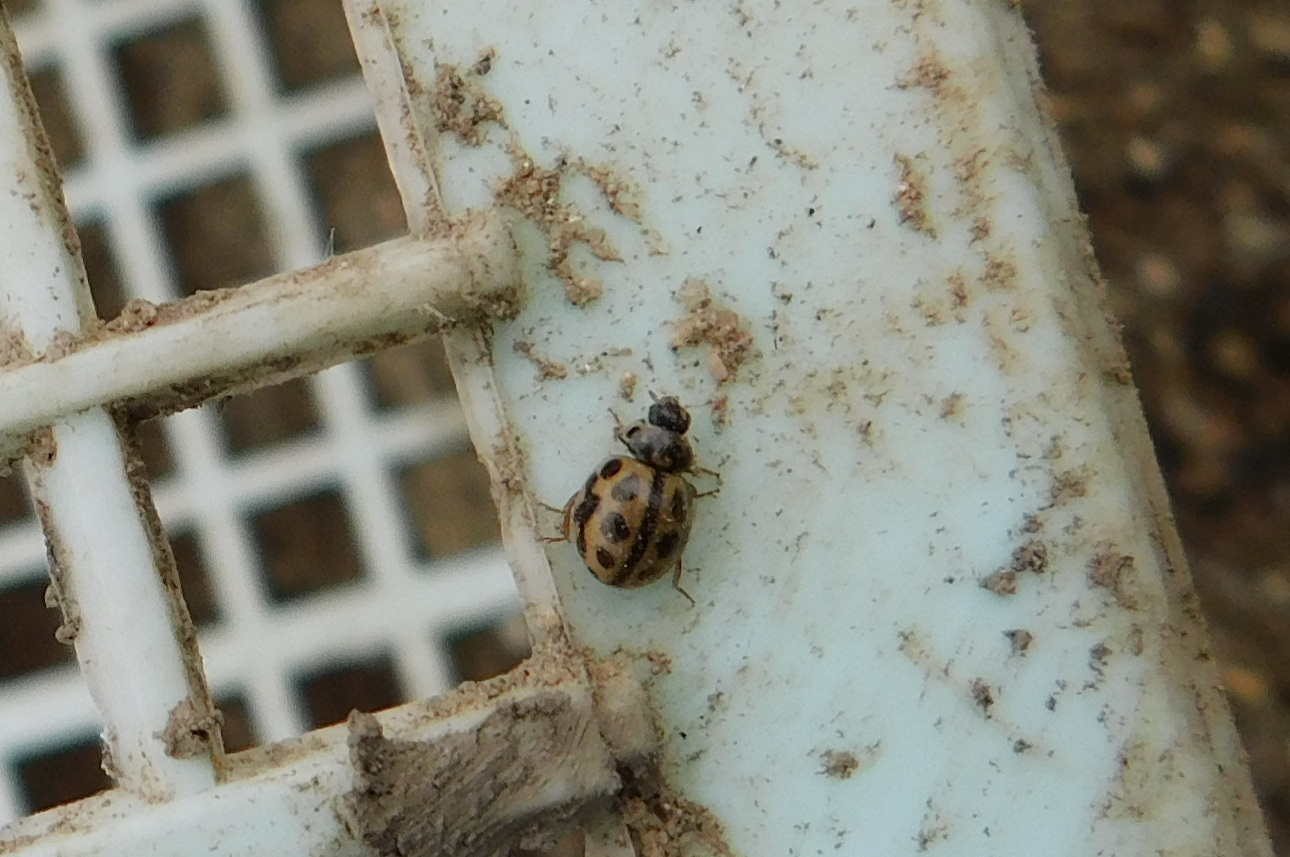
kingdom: Animalia
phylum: Arthropoda
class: Insecta
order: Coleoptera
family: Coccinellidae
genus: Tytthaspis
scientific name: Tytthaspis sedecimpunctata
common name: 16-spot ladybird
